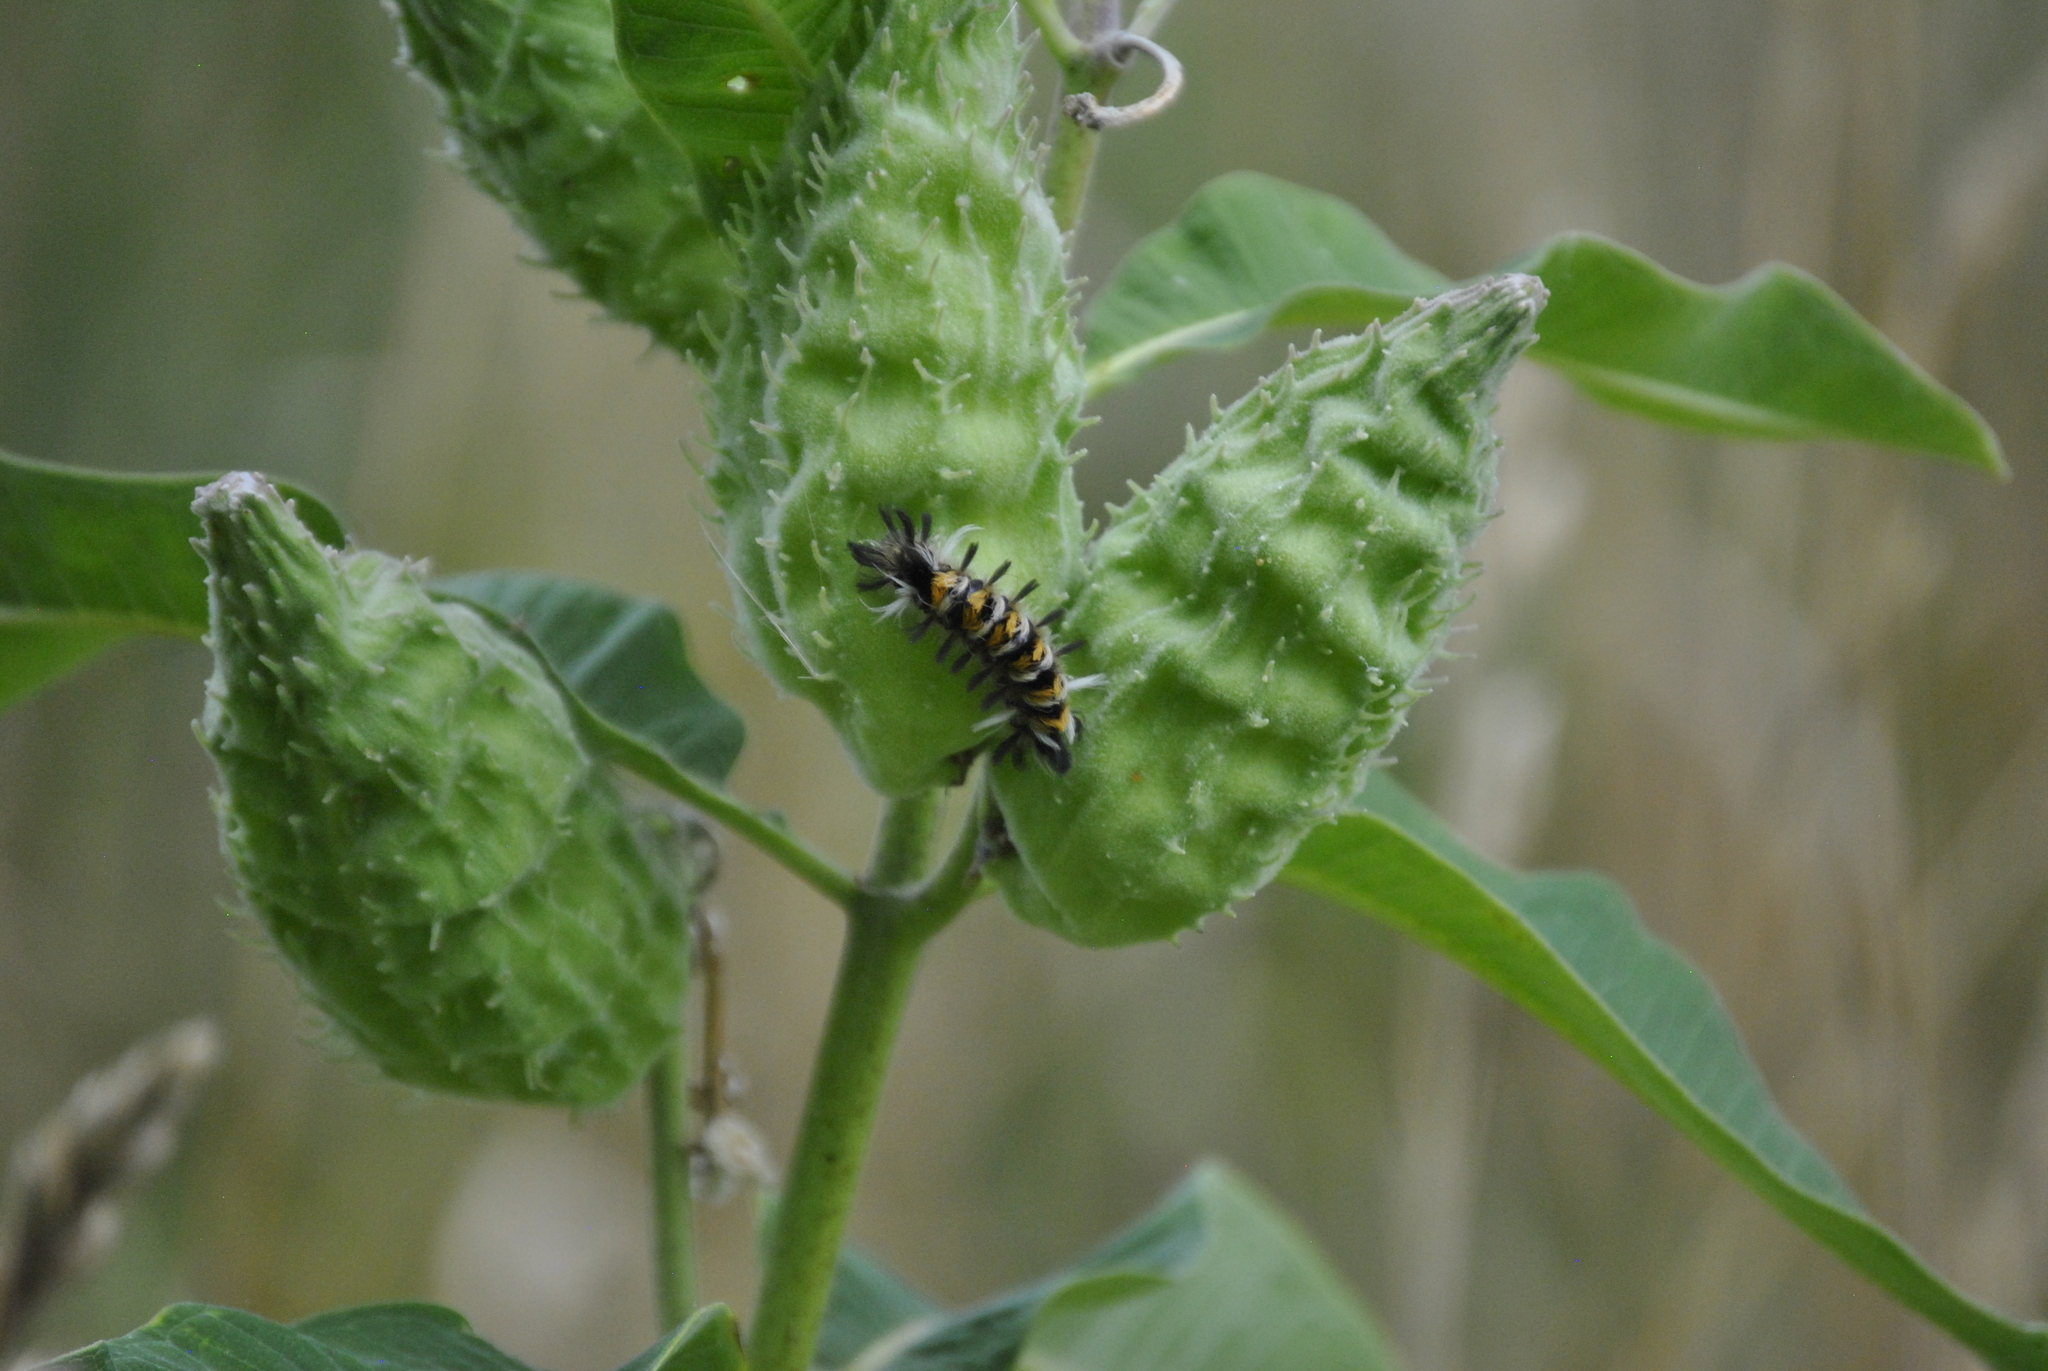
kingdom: Animalia
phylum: Arthropoda
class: Insecta
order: Lepidoptera
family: Erebidae
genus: Euchaetes
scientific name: Euchaetes egle
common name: Milkweed tussock moth
